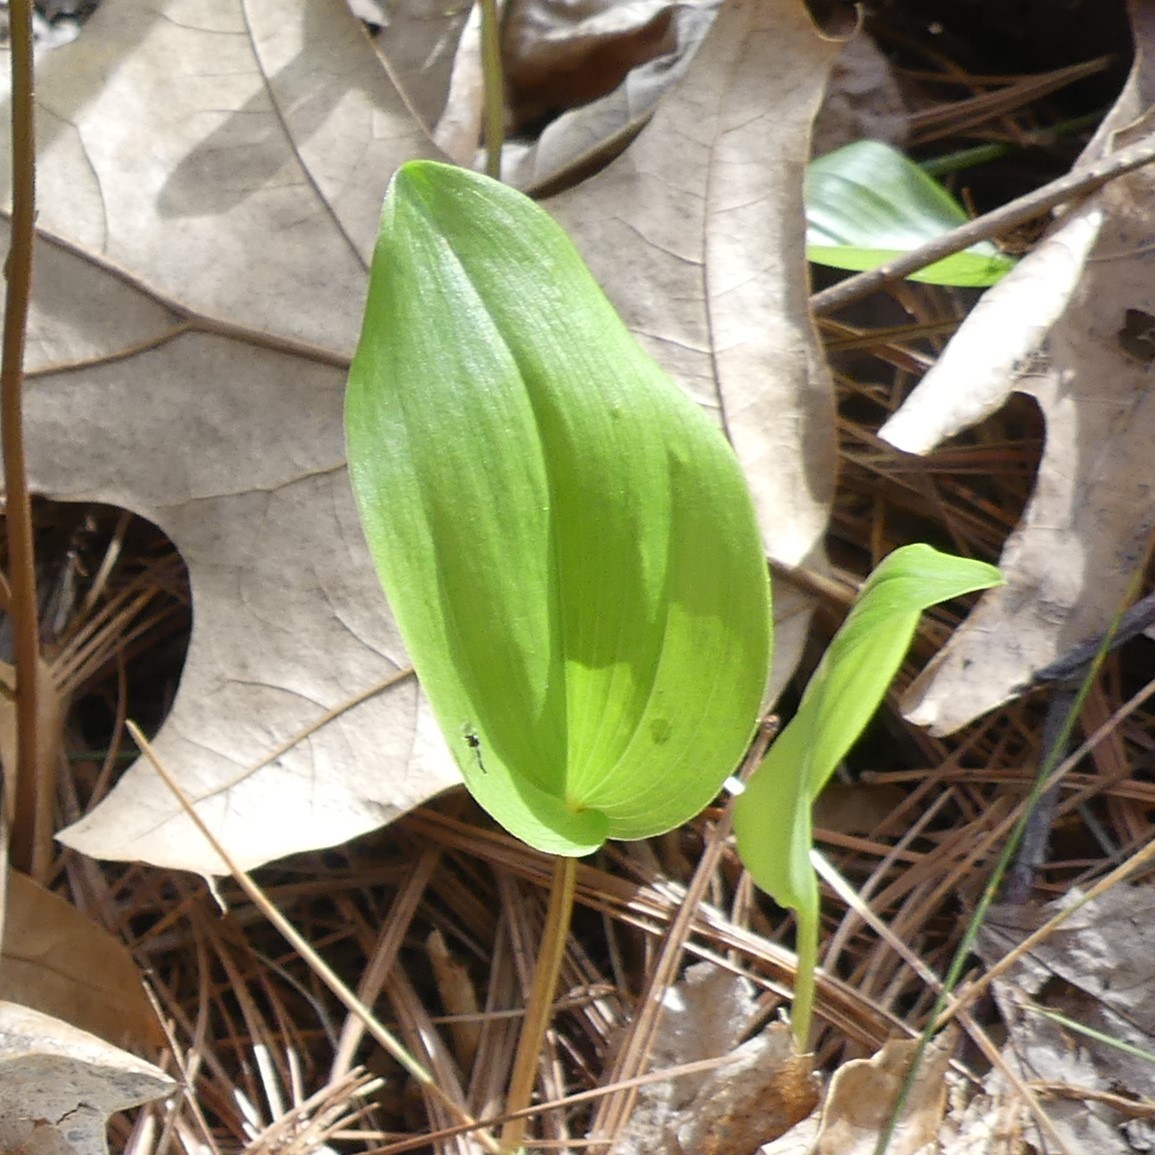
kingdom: Plantae
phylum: Tracheophyta
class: Liliopsida
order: Asparagales
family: Asparagaceae
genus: Maianthemum
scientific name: Maianthemum canadense
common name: False lily-of-the-valley
